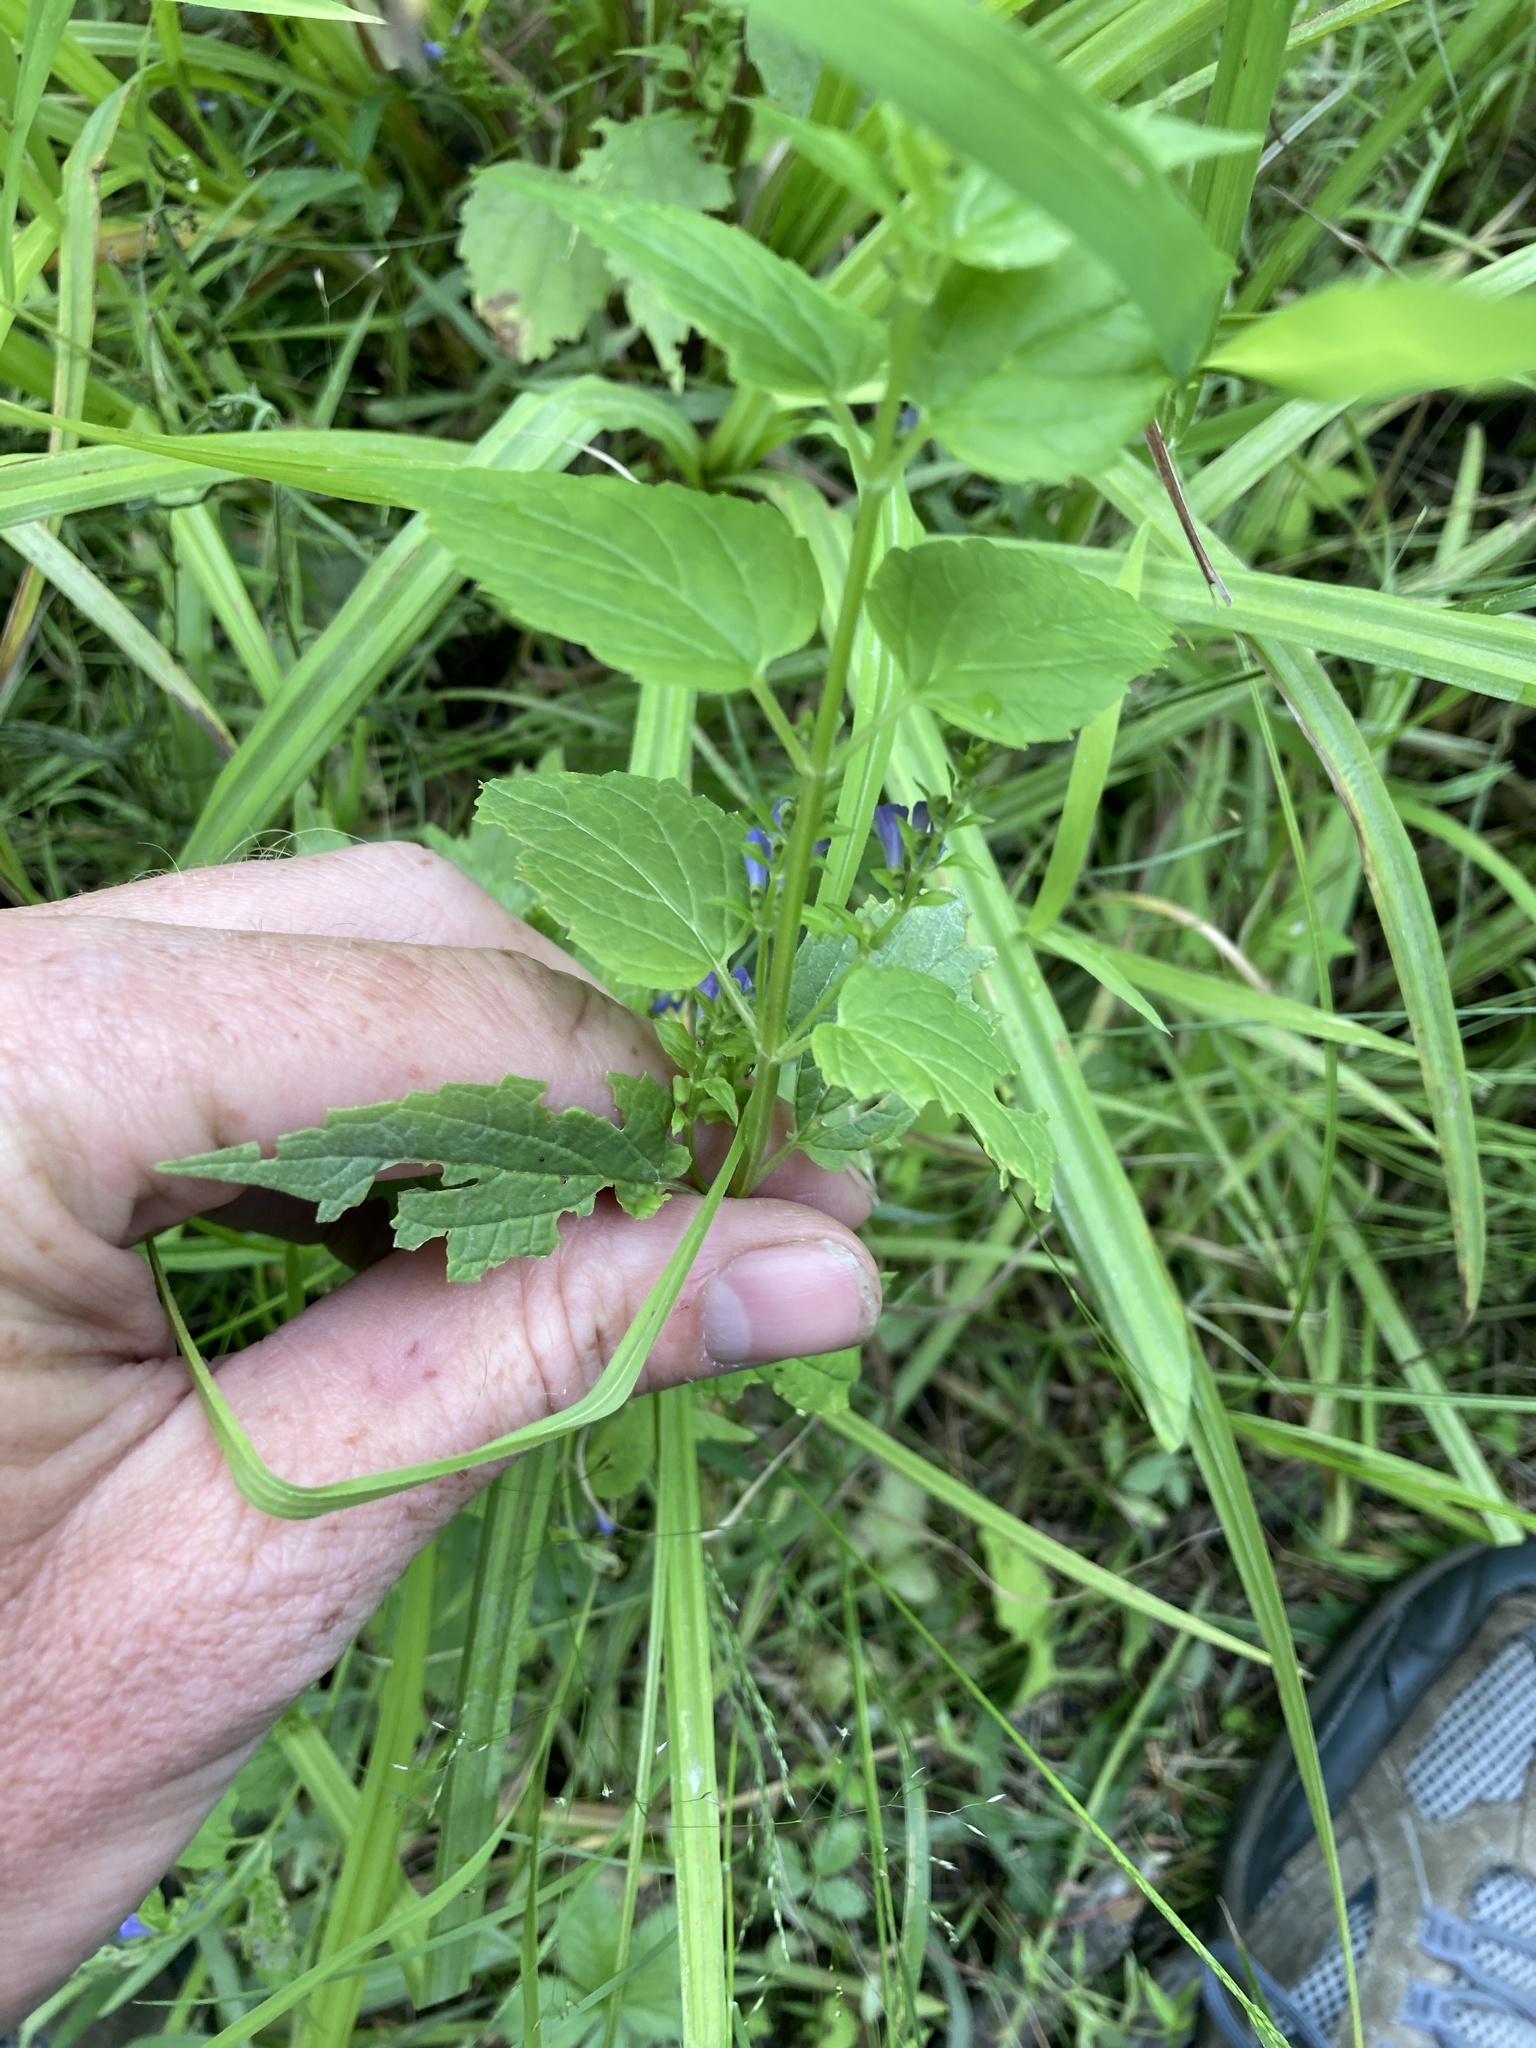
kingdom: Plantae
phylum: Tracheophyta
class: Magnoliopsida
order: Lamiales
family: Lamiaceae
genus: Scutellaria
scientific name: Scutellaria lateriflora
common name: Blue skullcap
